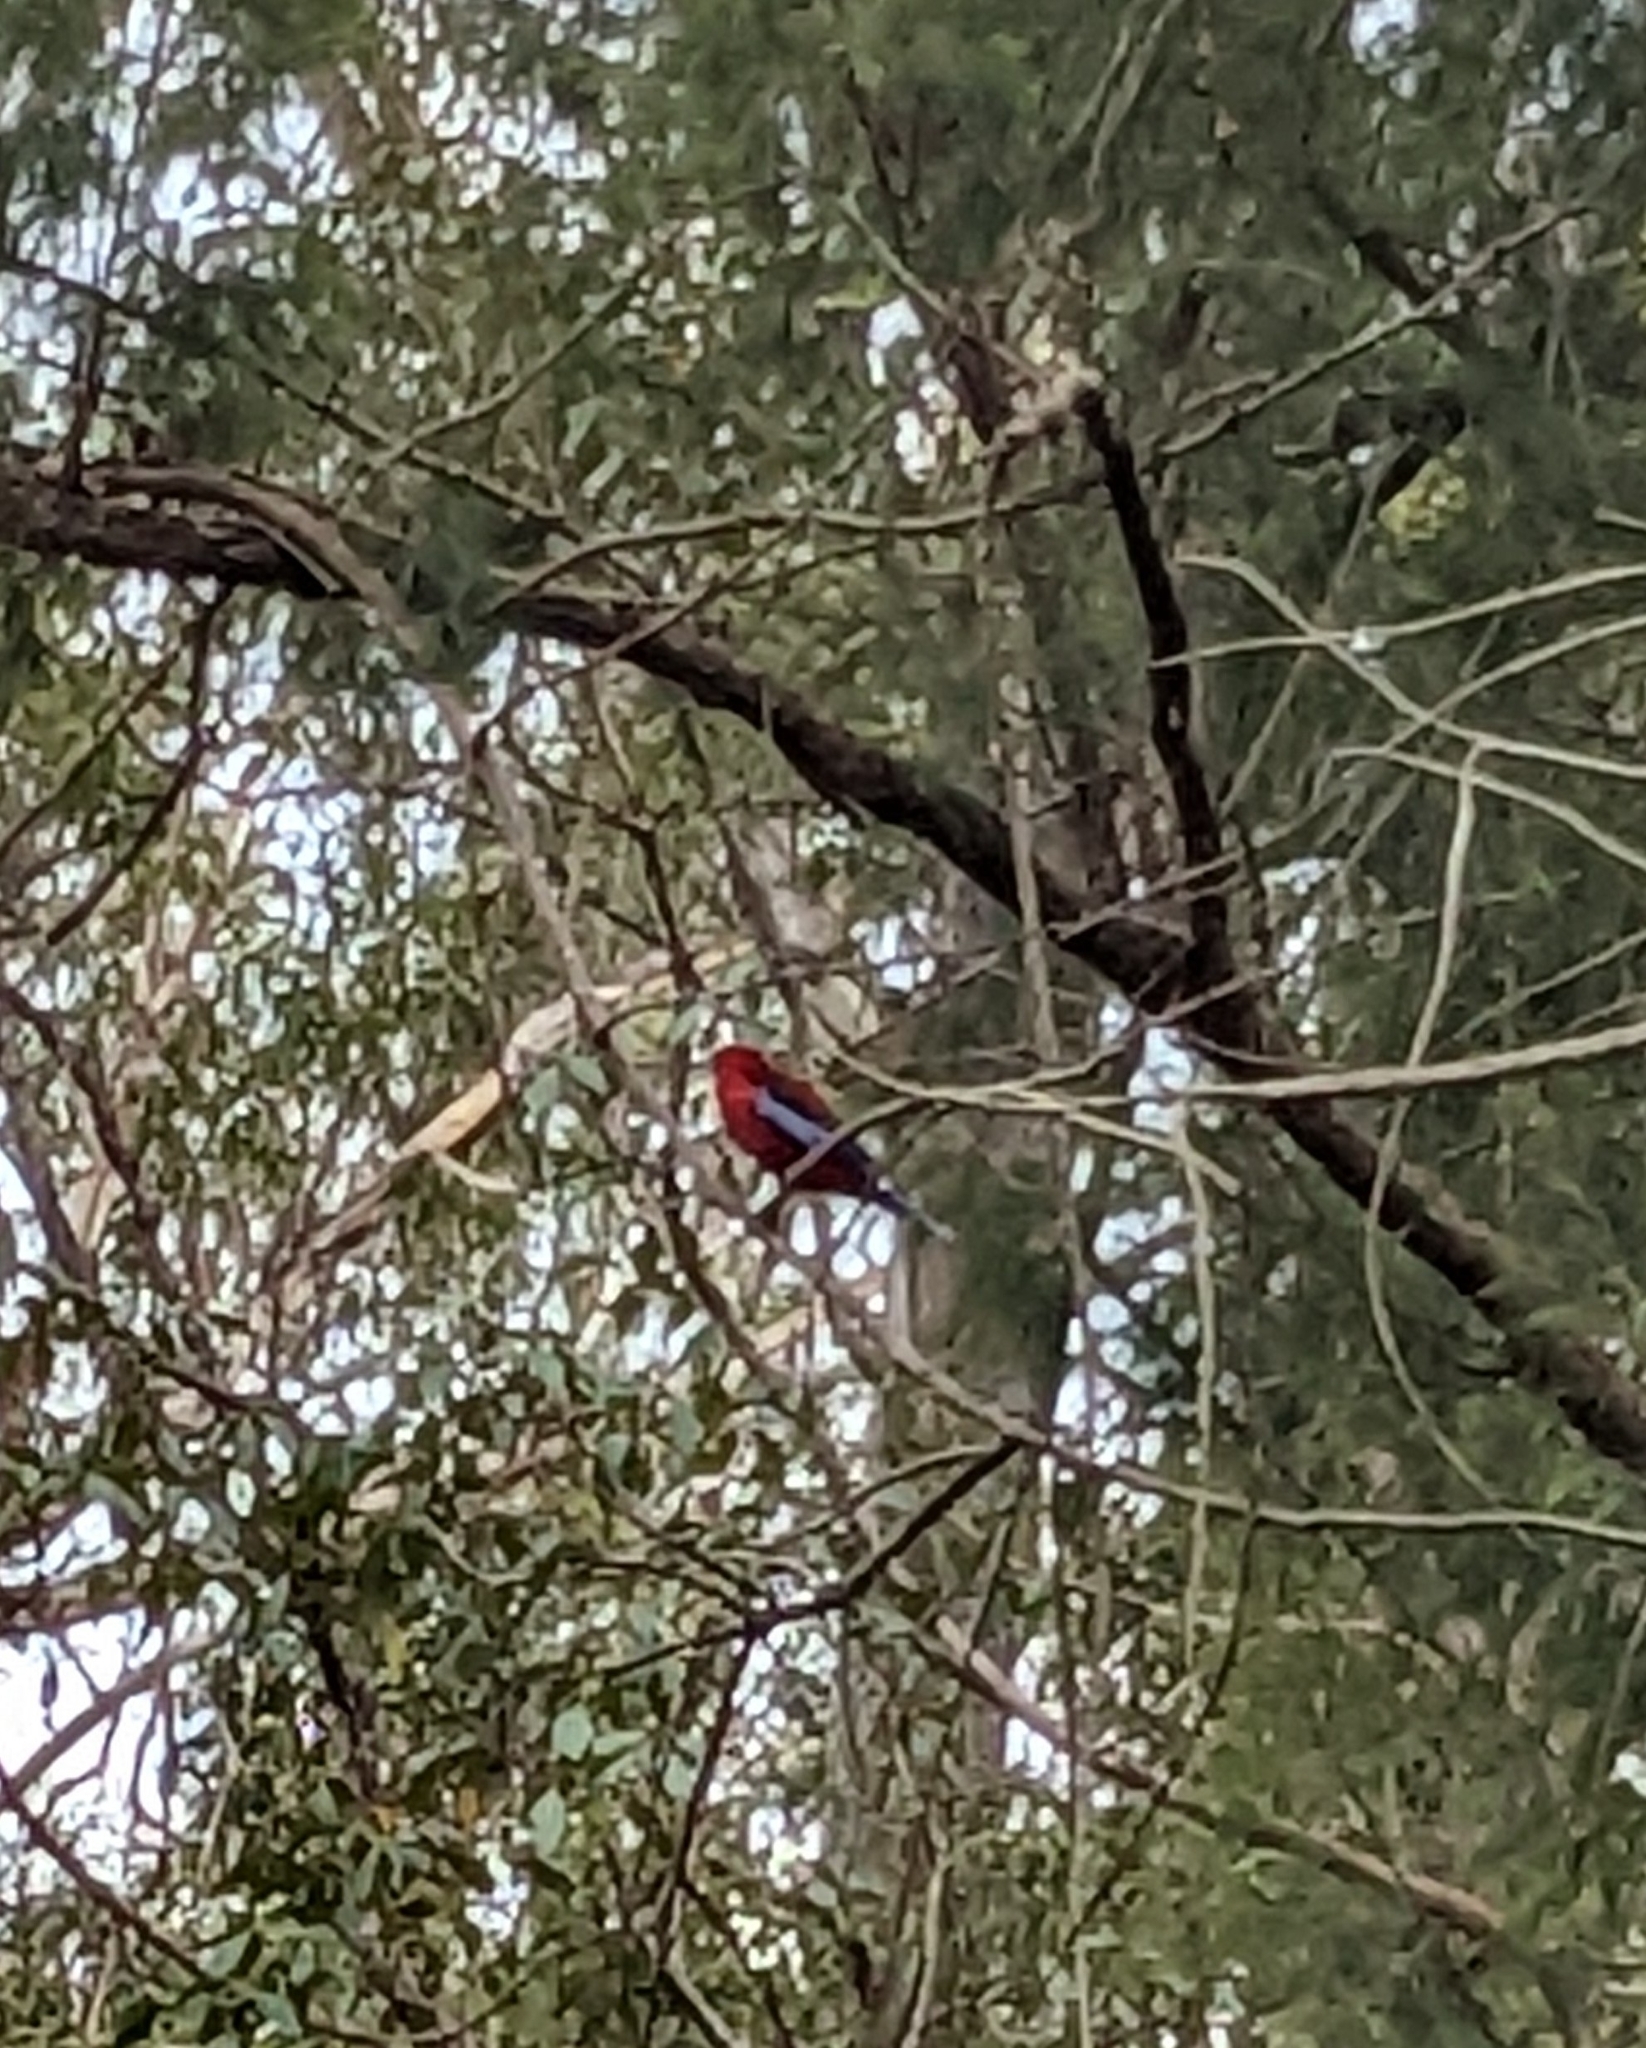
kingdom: Animalia
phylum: Chordata
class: Aves
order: Psittaciformes
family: Psittacidae
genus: Platycercus
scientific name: Platycercus elegans
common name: Crimson rosella
